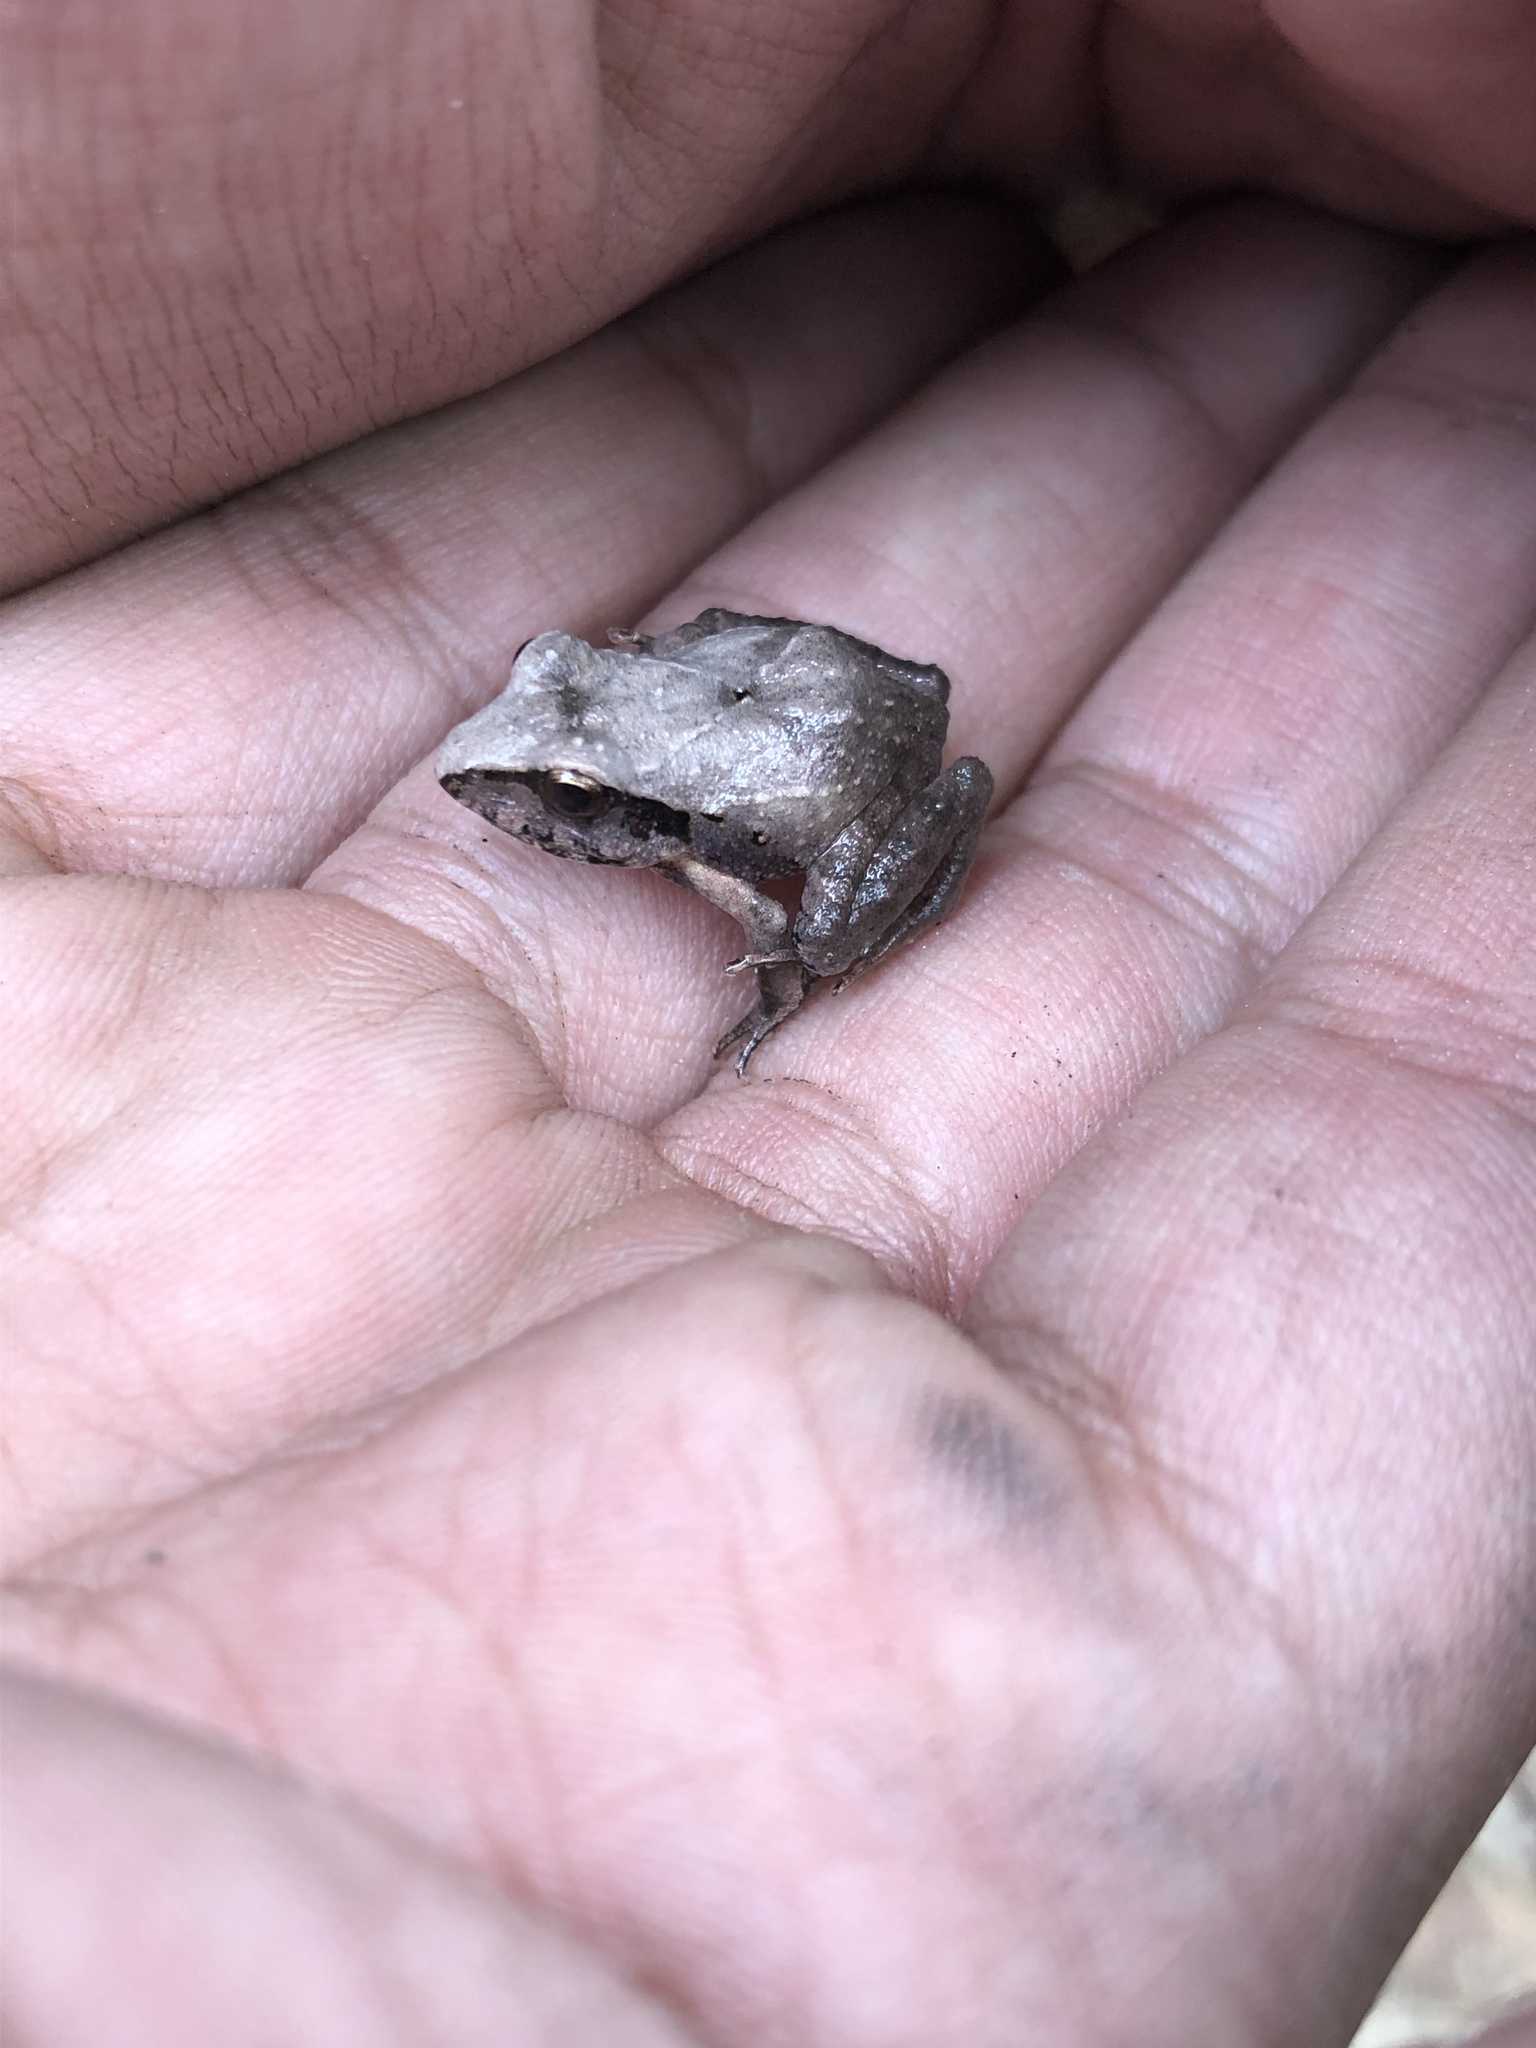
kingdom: Animalia
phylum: Chordata
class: Amphibia
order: Anura
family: Craugastoridae
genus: Craugastor
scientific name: Craugastor occidentalis
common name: Taylor's barking frog
